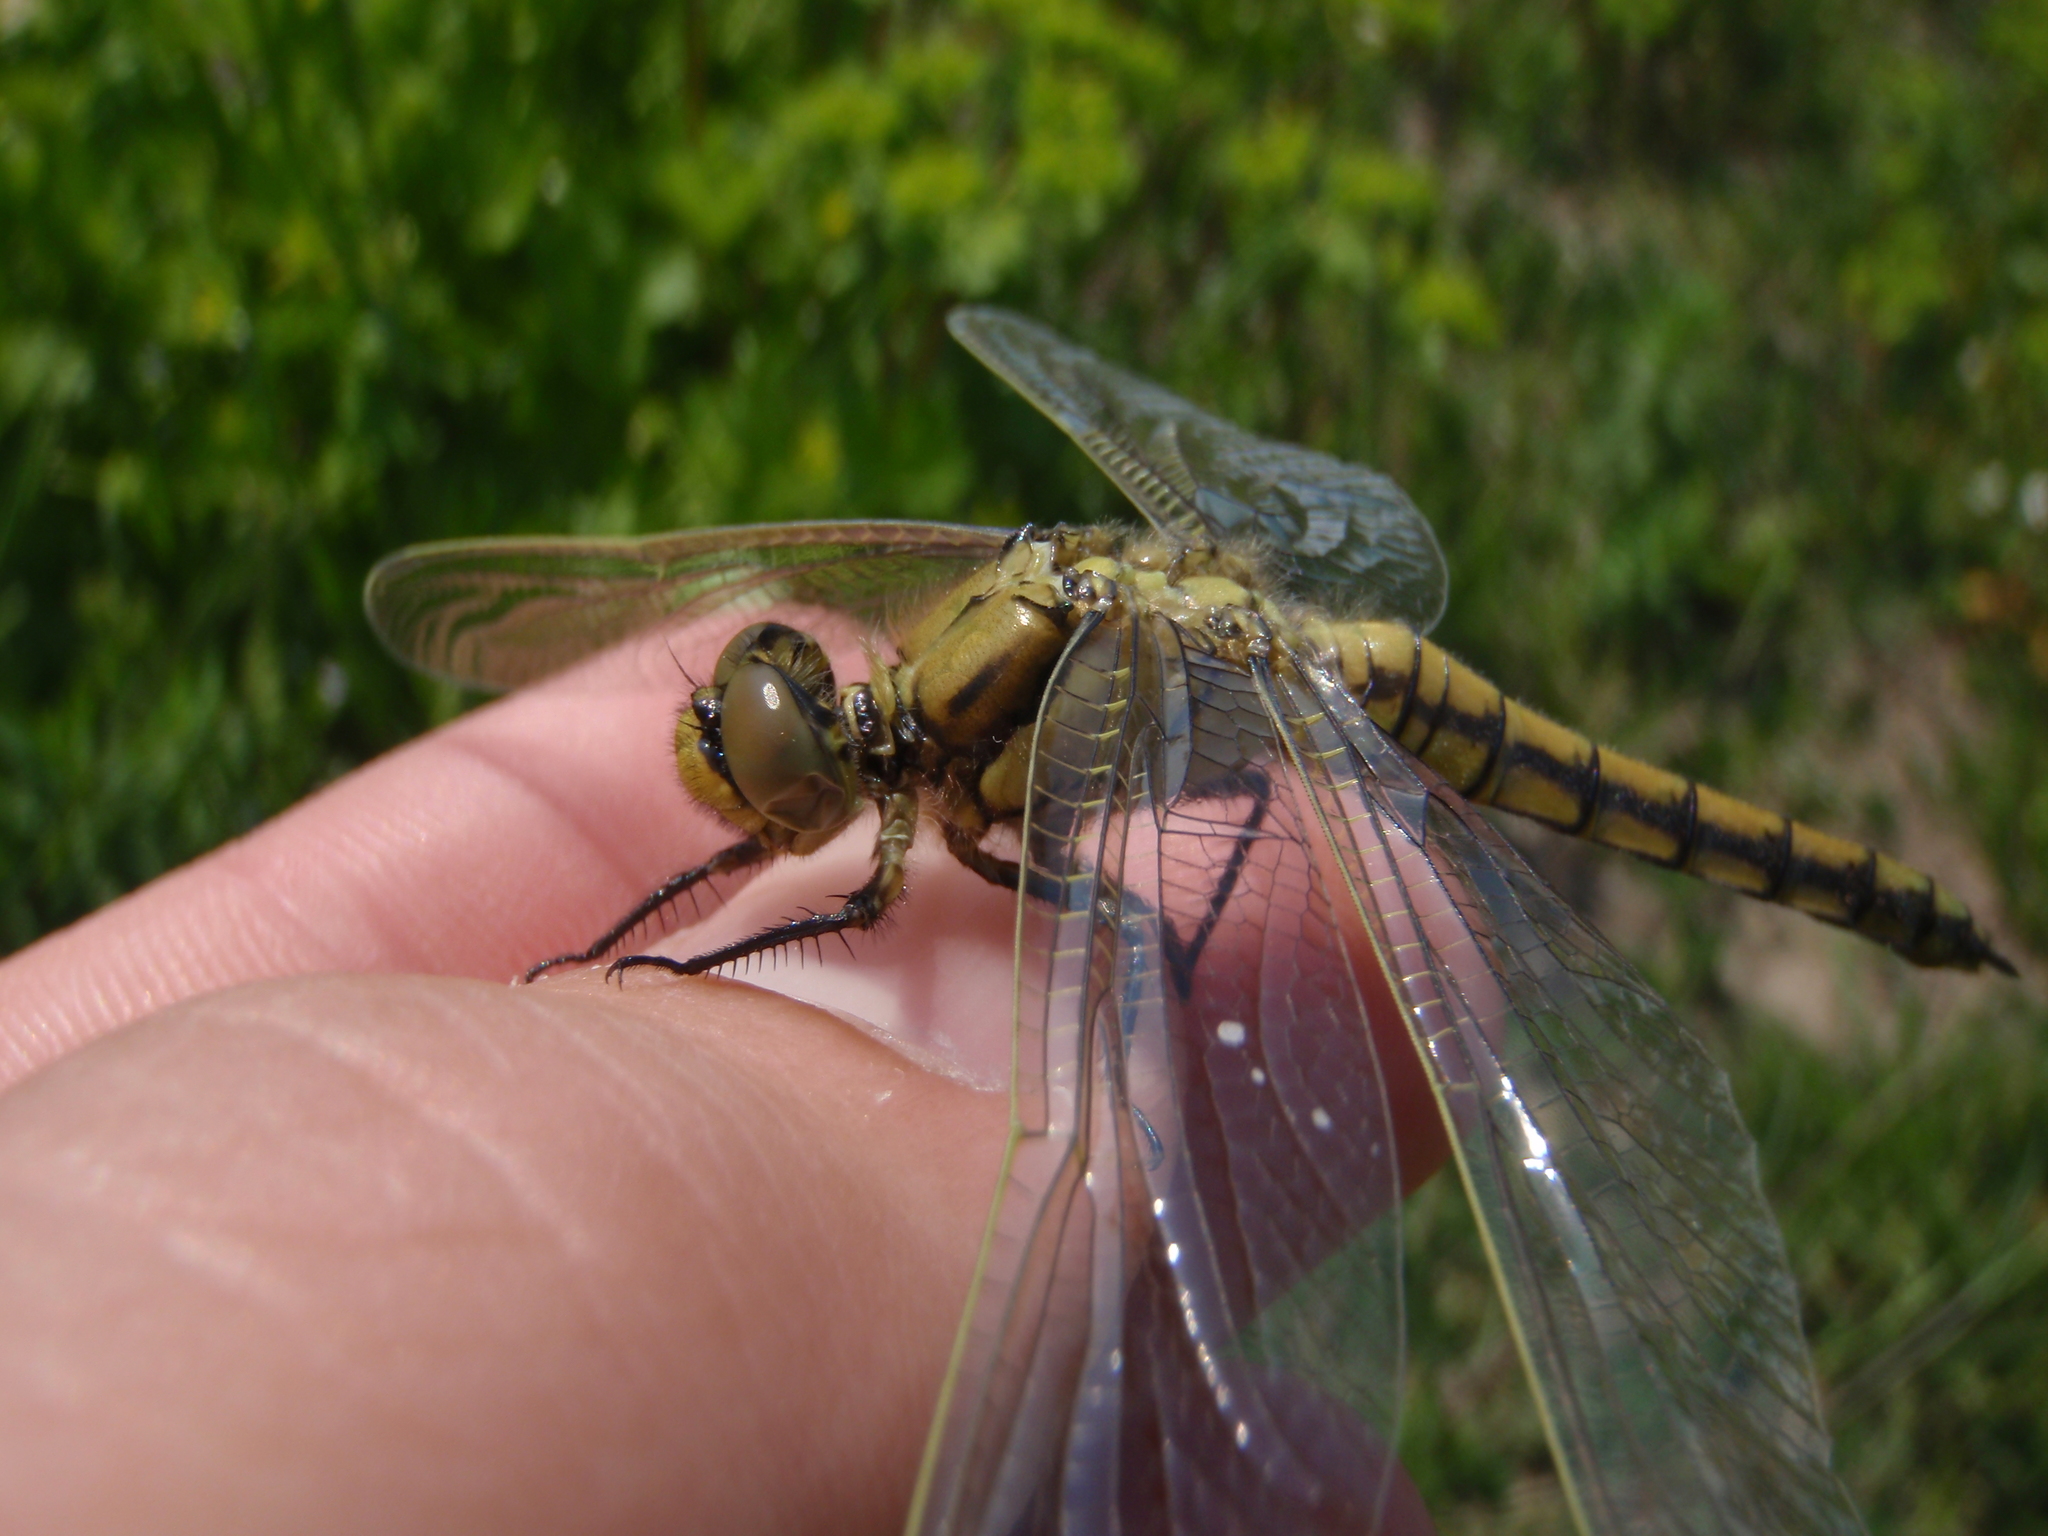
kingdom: Animalia
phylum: Arthropoda
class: Insecta
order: Odonata
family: Libellulidae
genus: Orthetrum
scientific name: Orthetrum cancellatum
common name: Black-tailed skimmer
